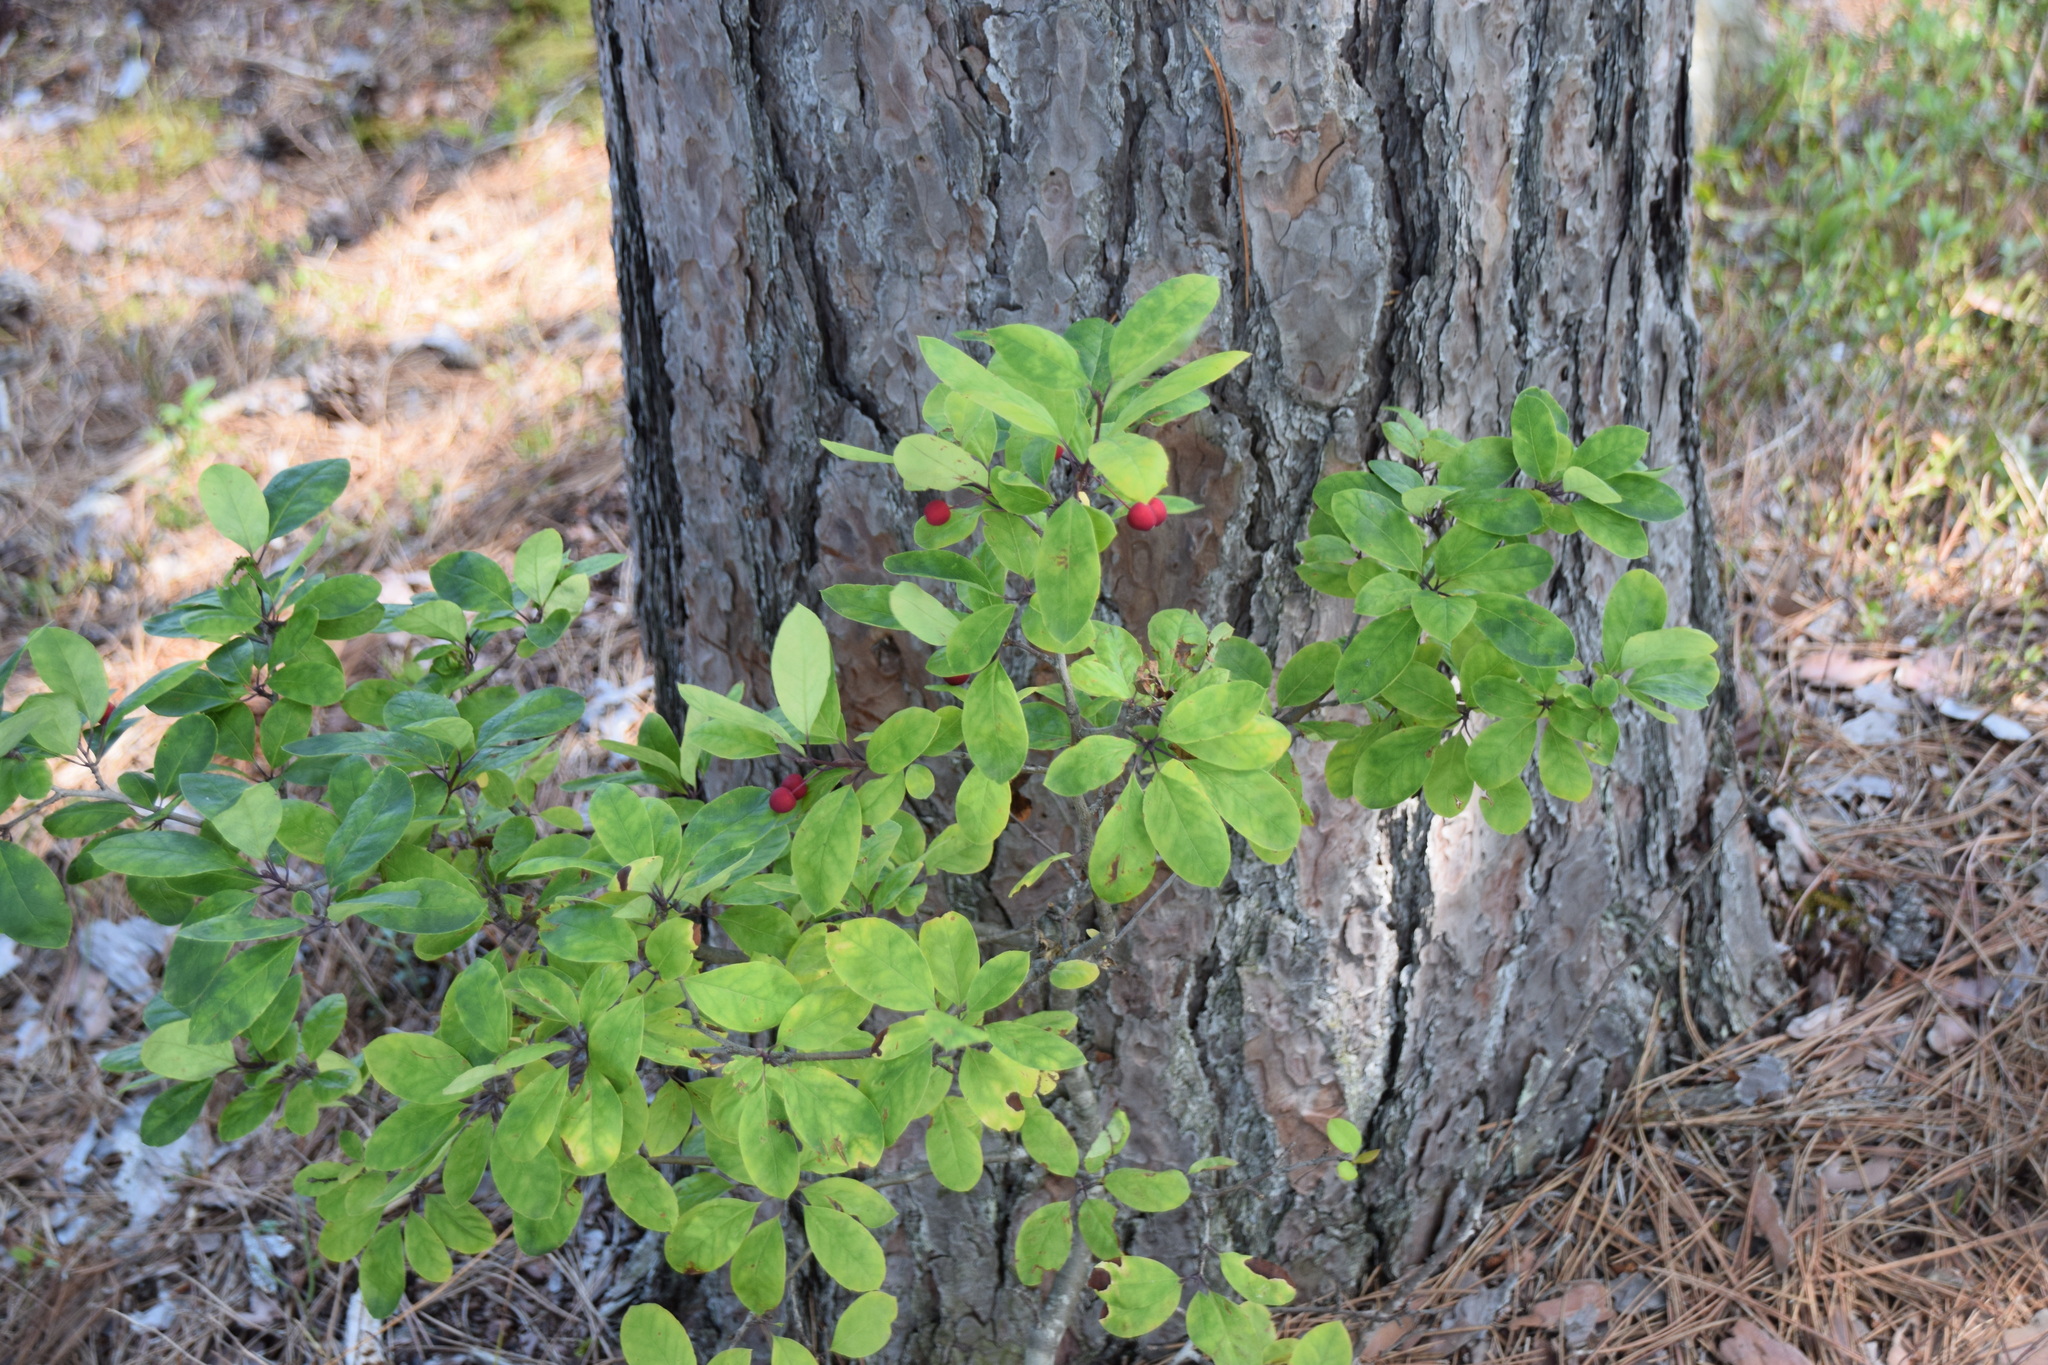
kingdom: Plantae
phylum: Tracheophyta
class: Magnoliopsida
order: Aquifoliales
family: Aquifoliaceae
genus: Ilex
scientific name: Ilex mucronata
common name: Catberry
